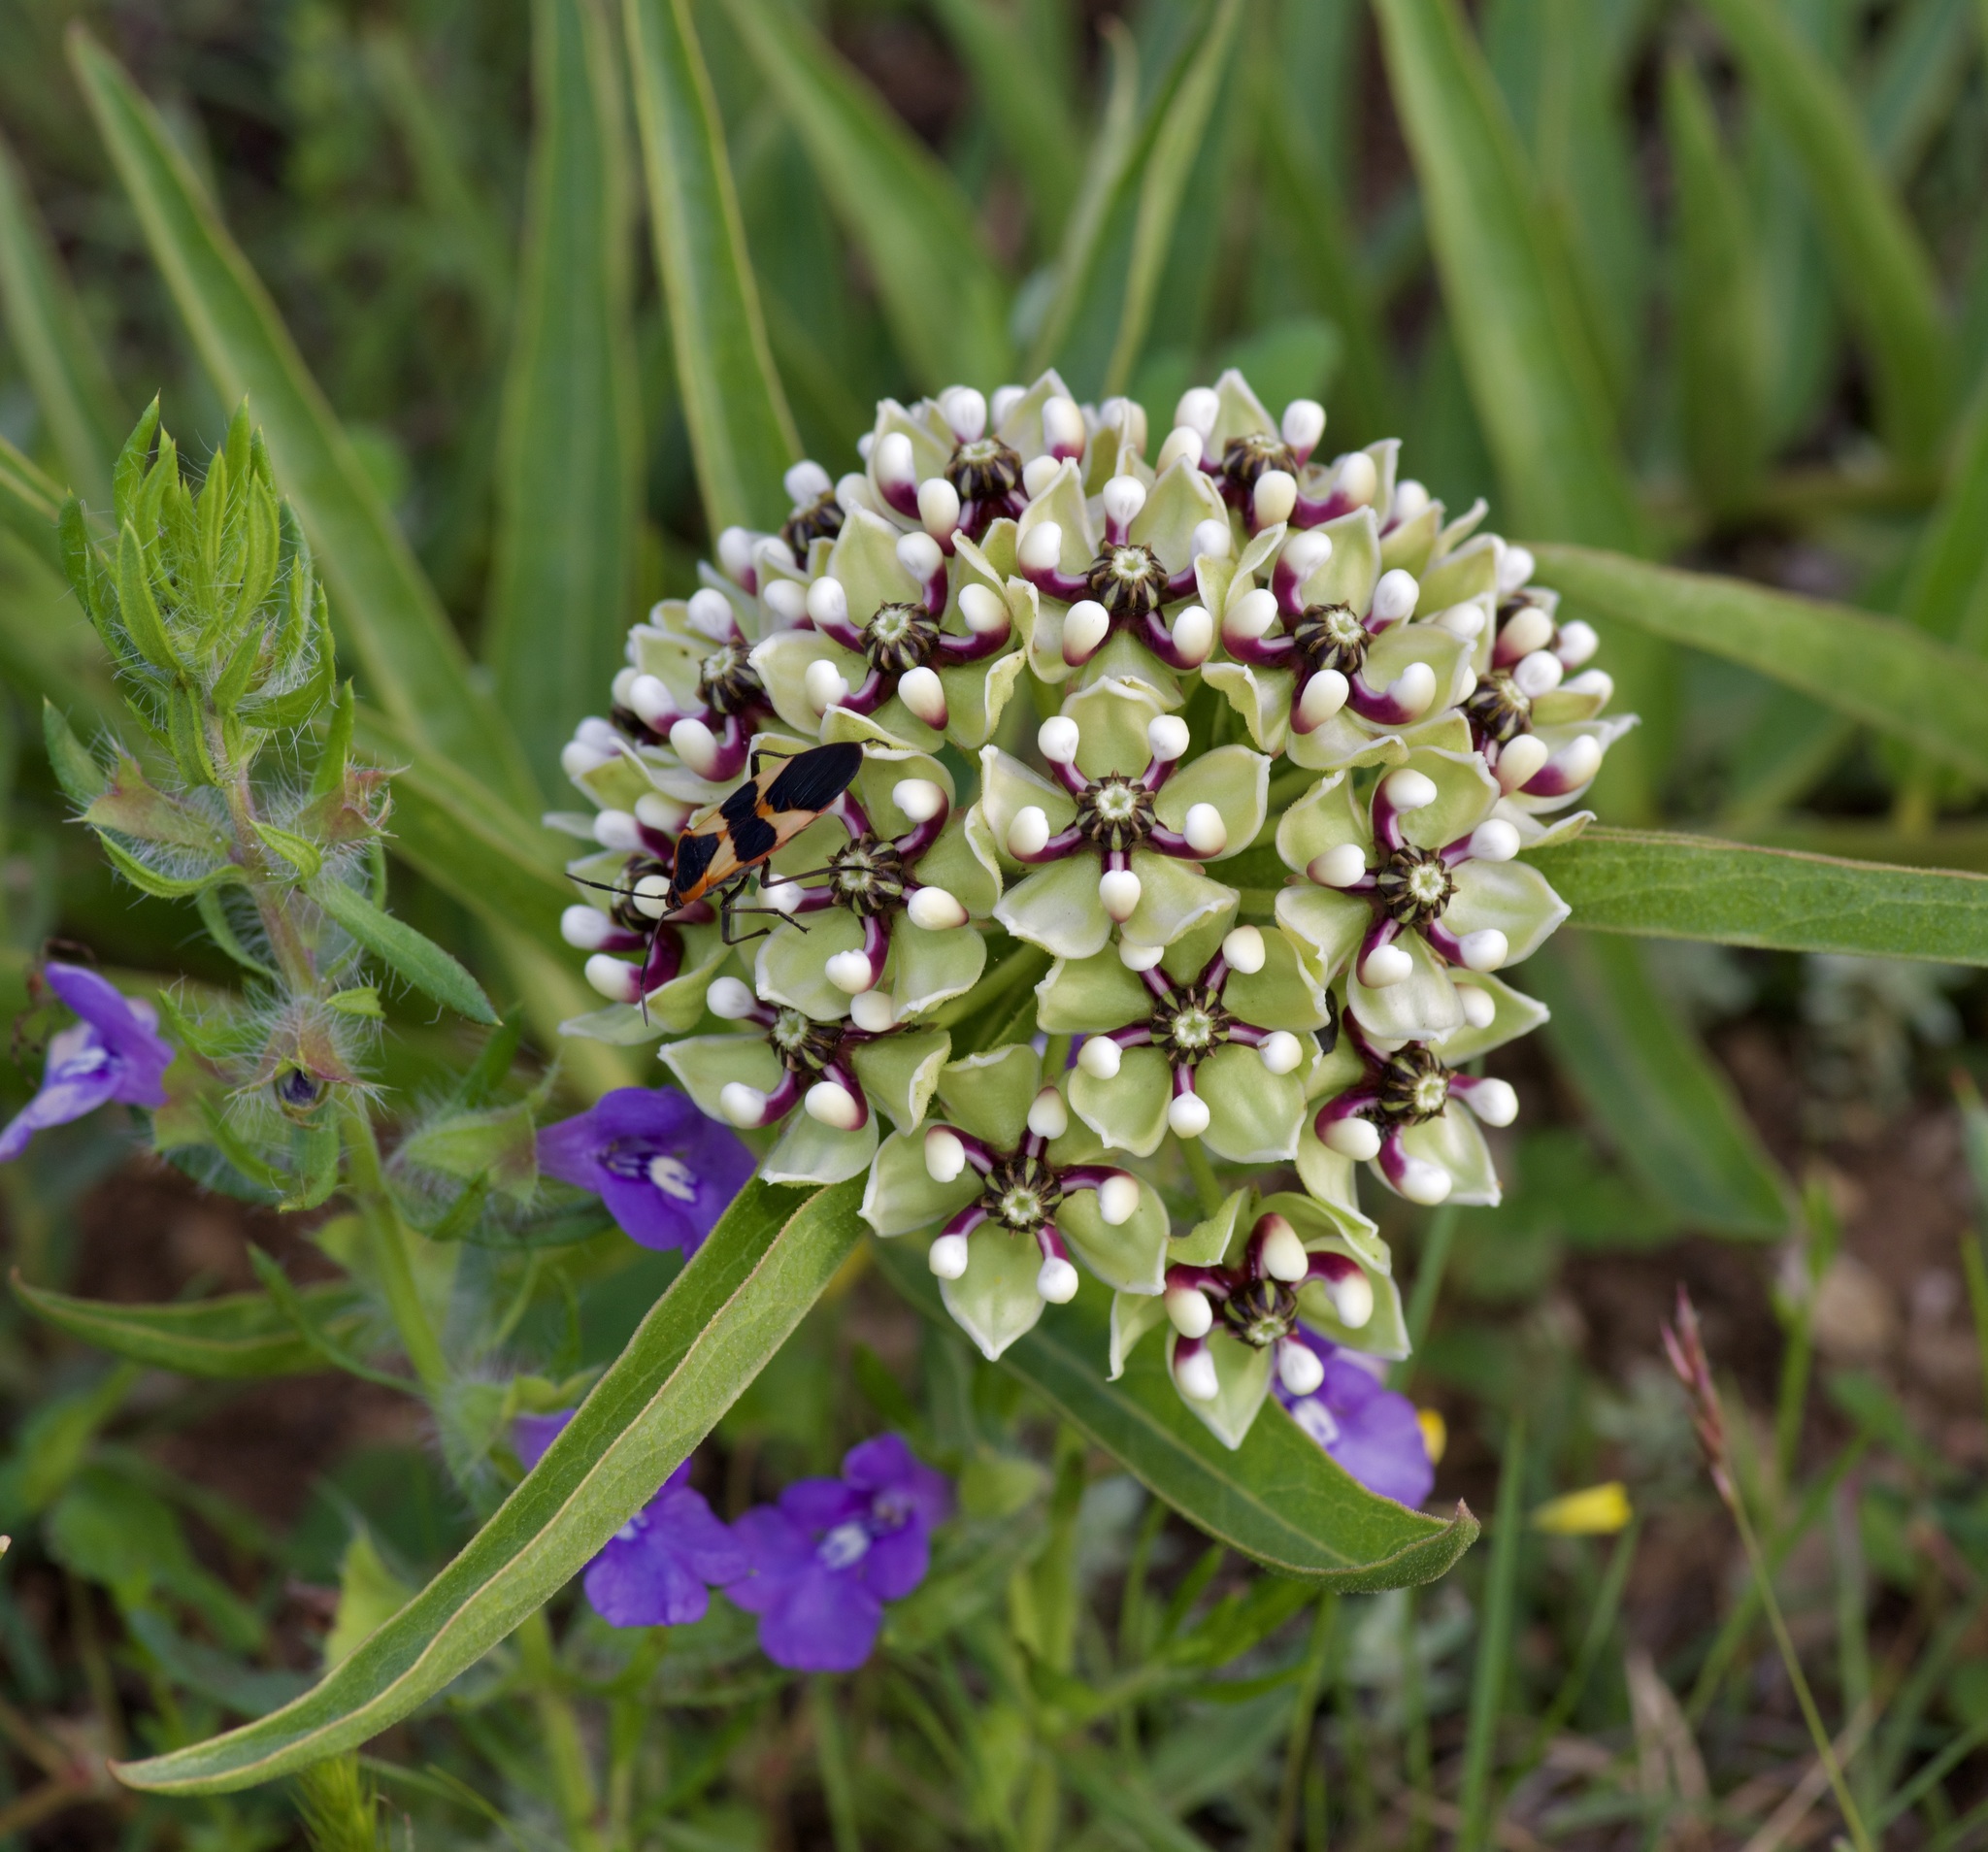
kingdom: Plantae
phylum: Tracheophyta
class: Magnoliopsida
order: Gentianales
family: Apocynaceae
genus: Asclepias
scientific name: Asclepias asperula
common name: Antelope horns
